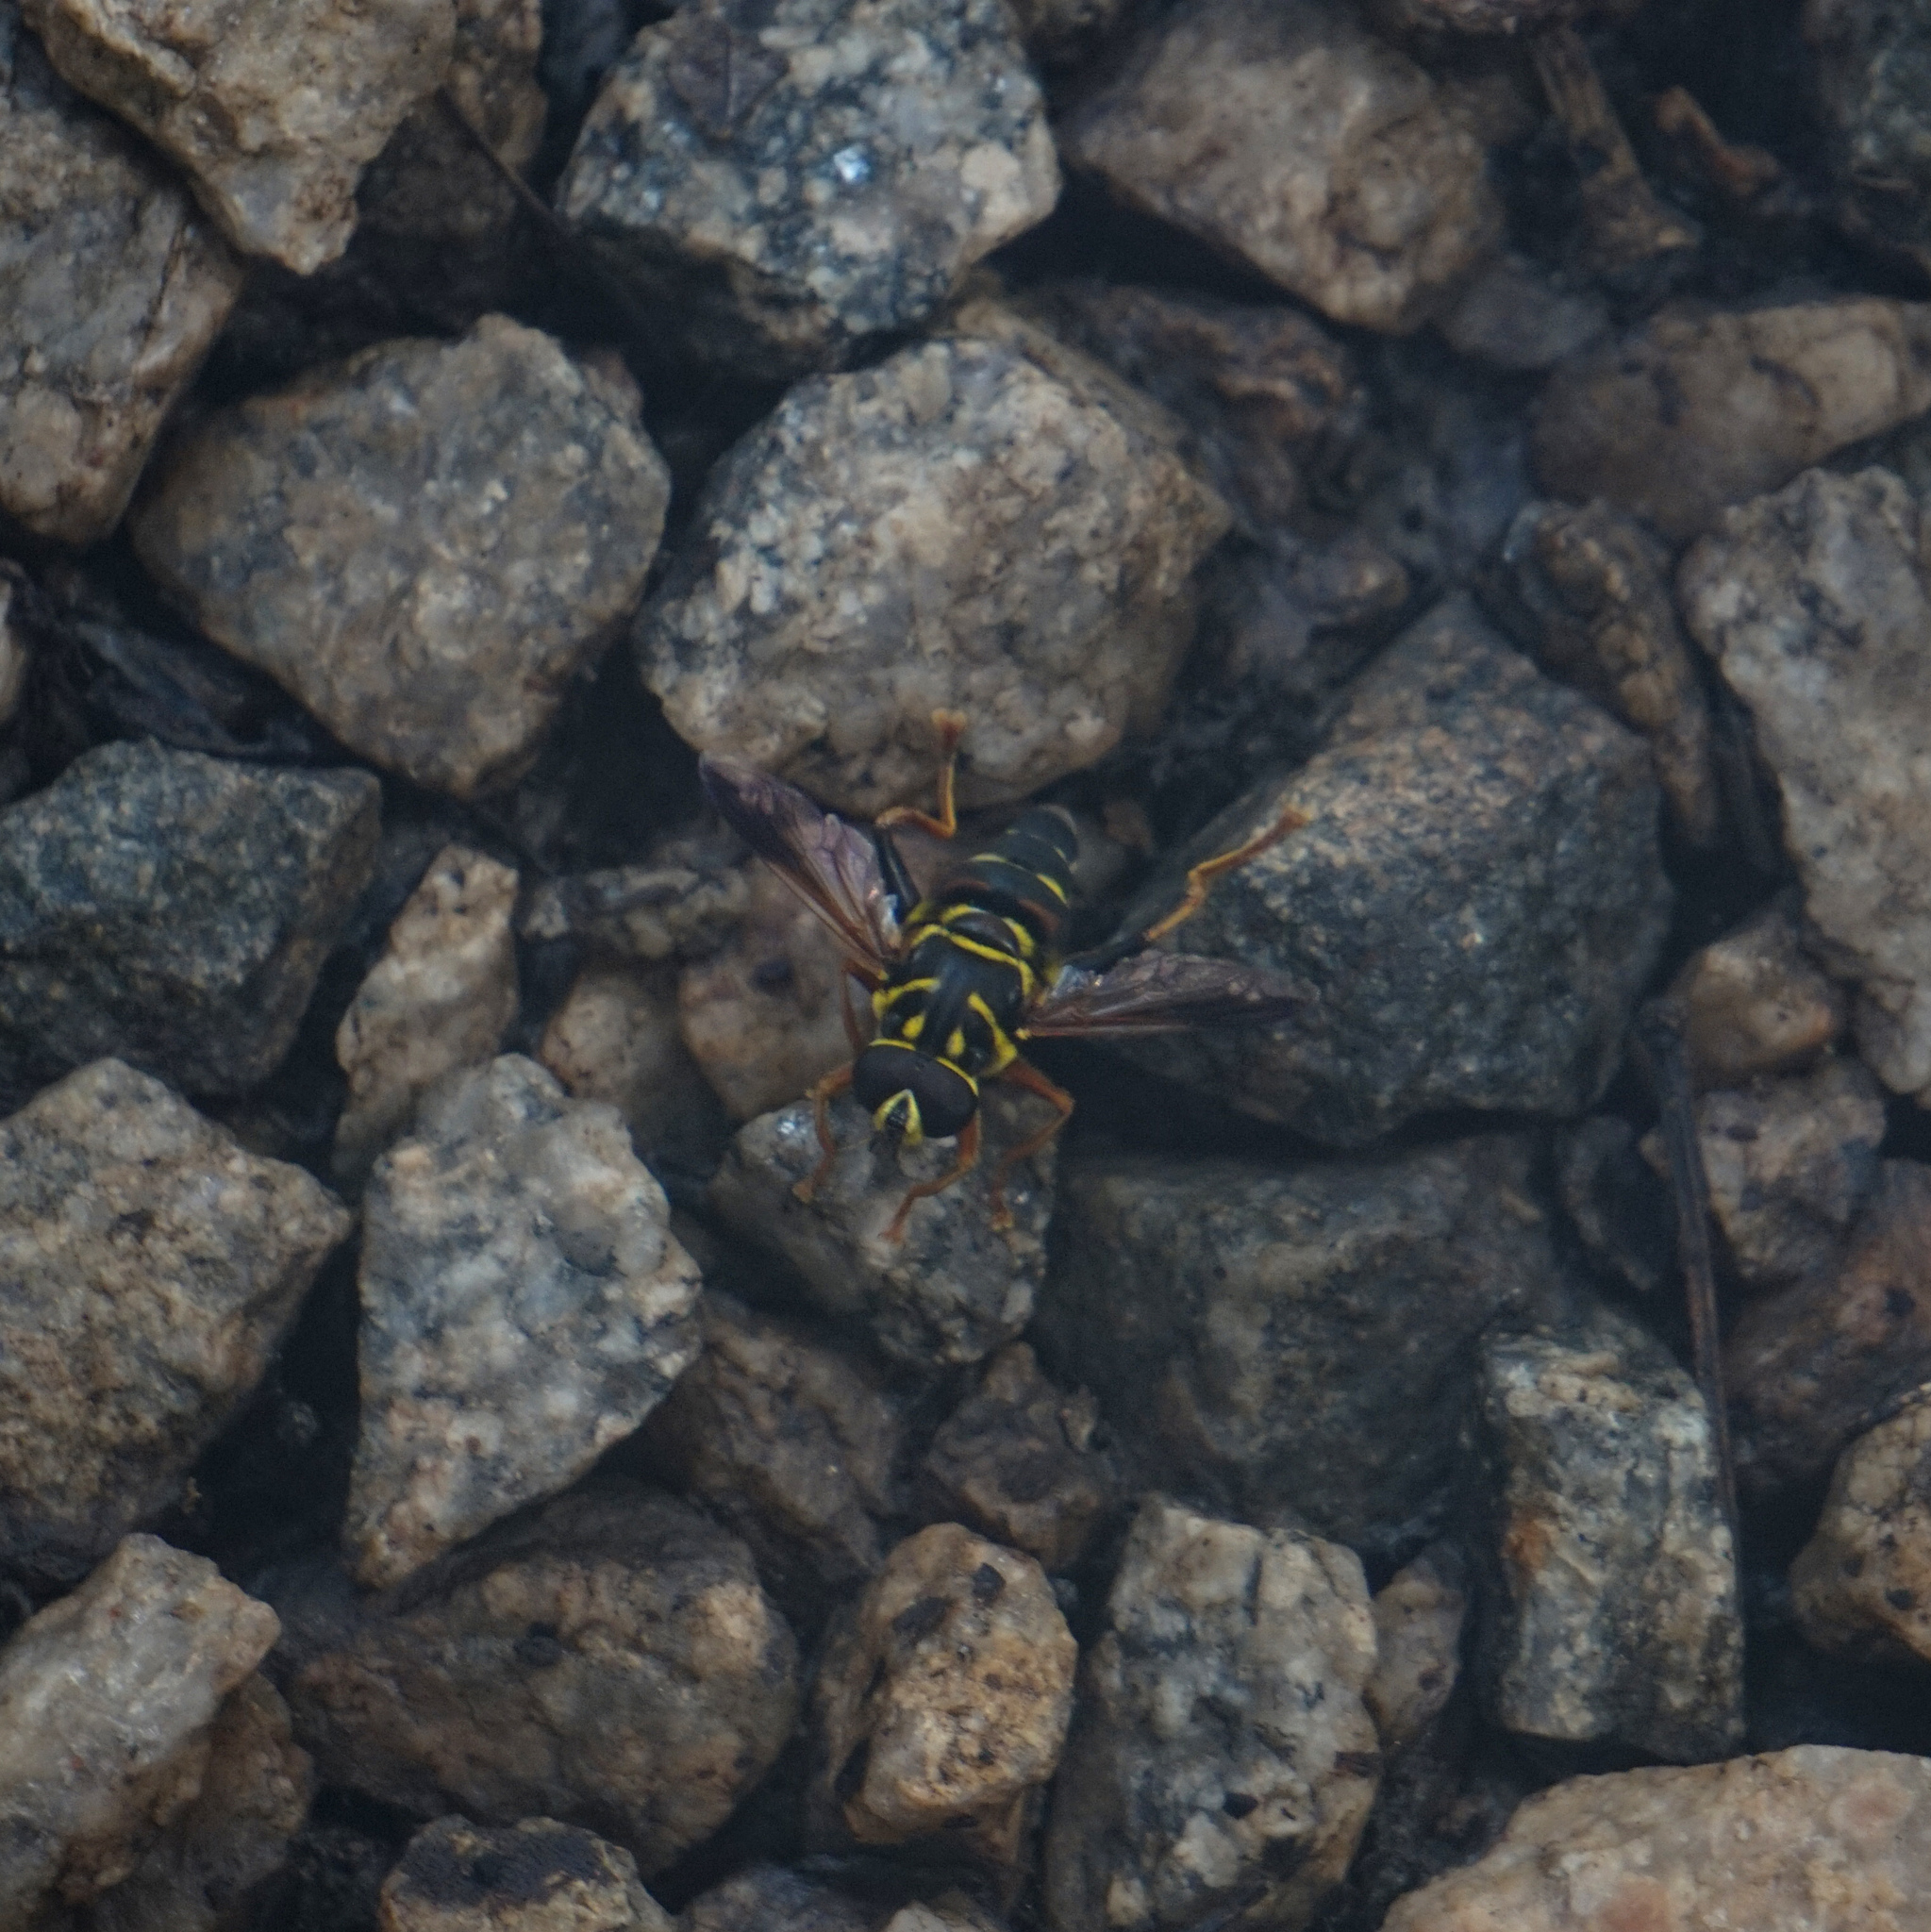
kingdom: Animalia
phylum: Arthropoda
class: Insecta
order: Diptera
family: Syrphidae
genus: Meromacrus
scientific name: Meromacrus acutus
